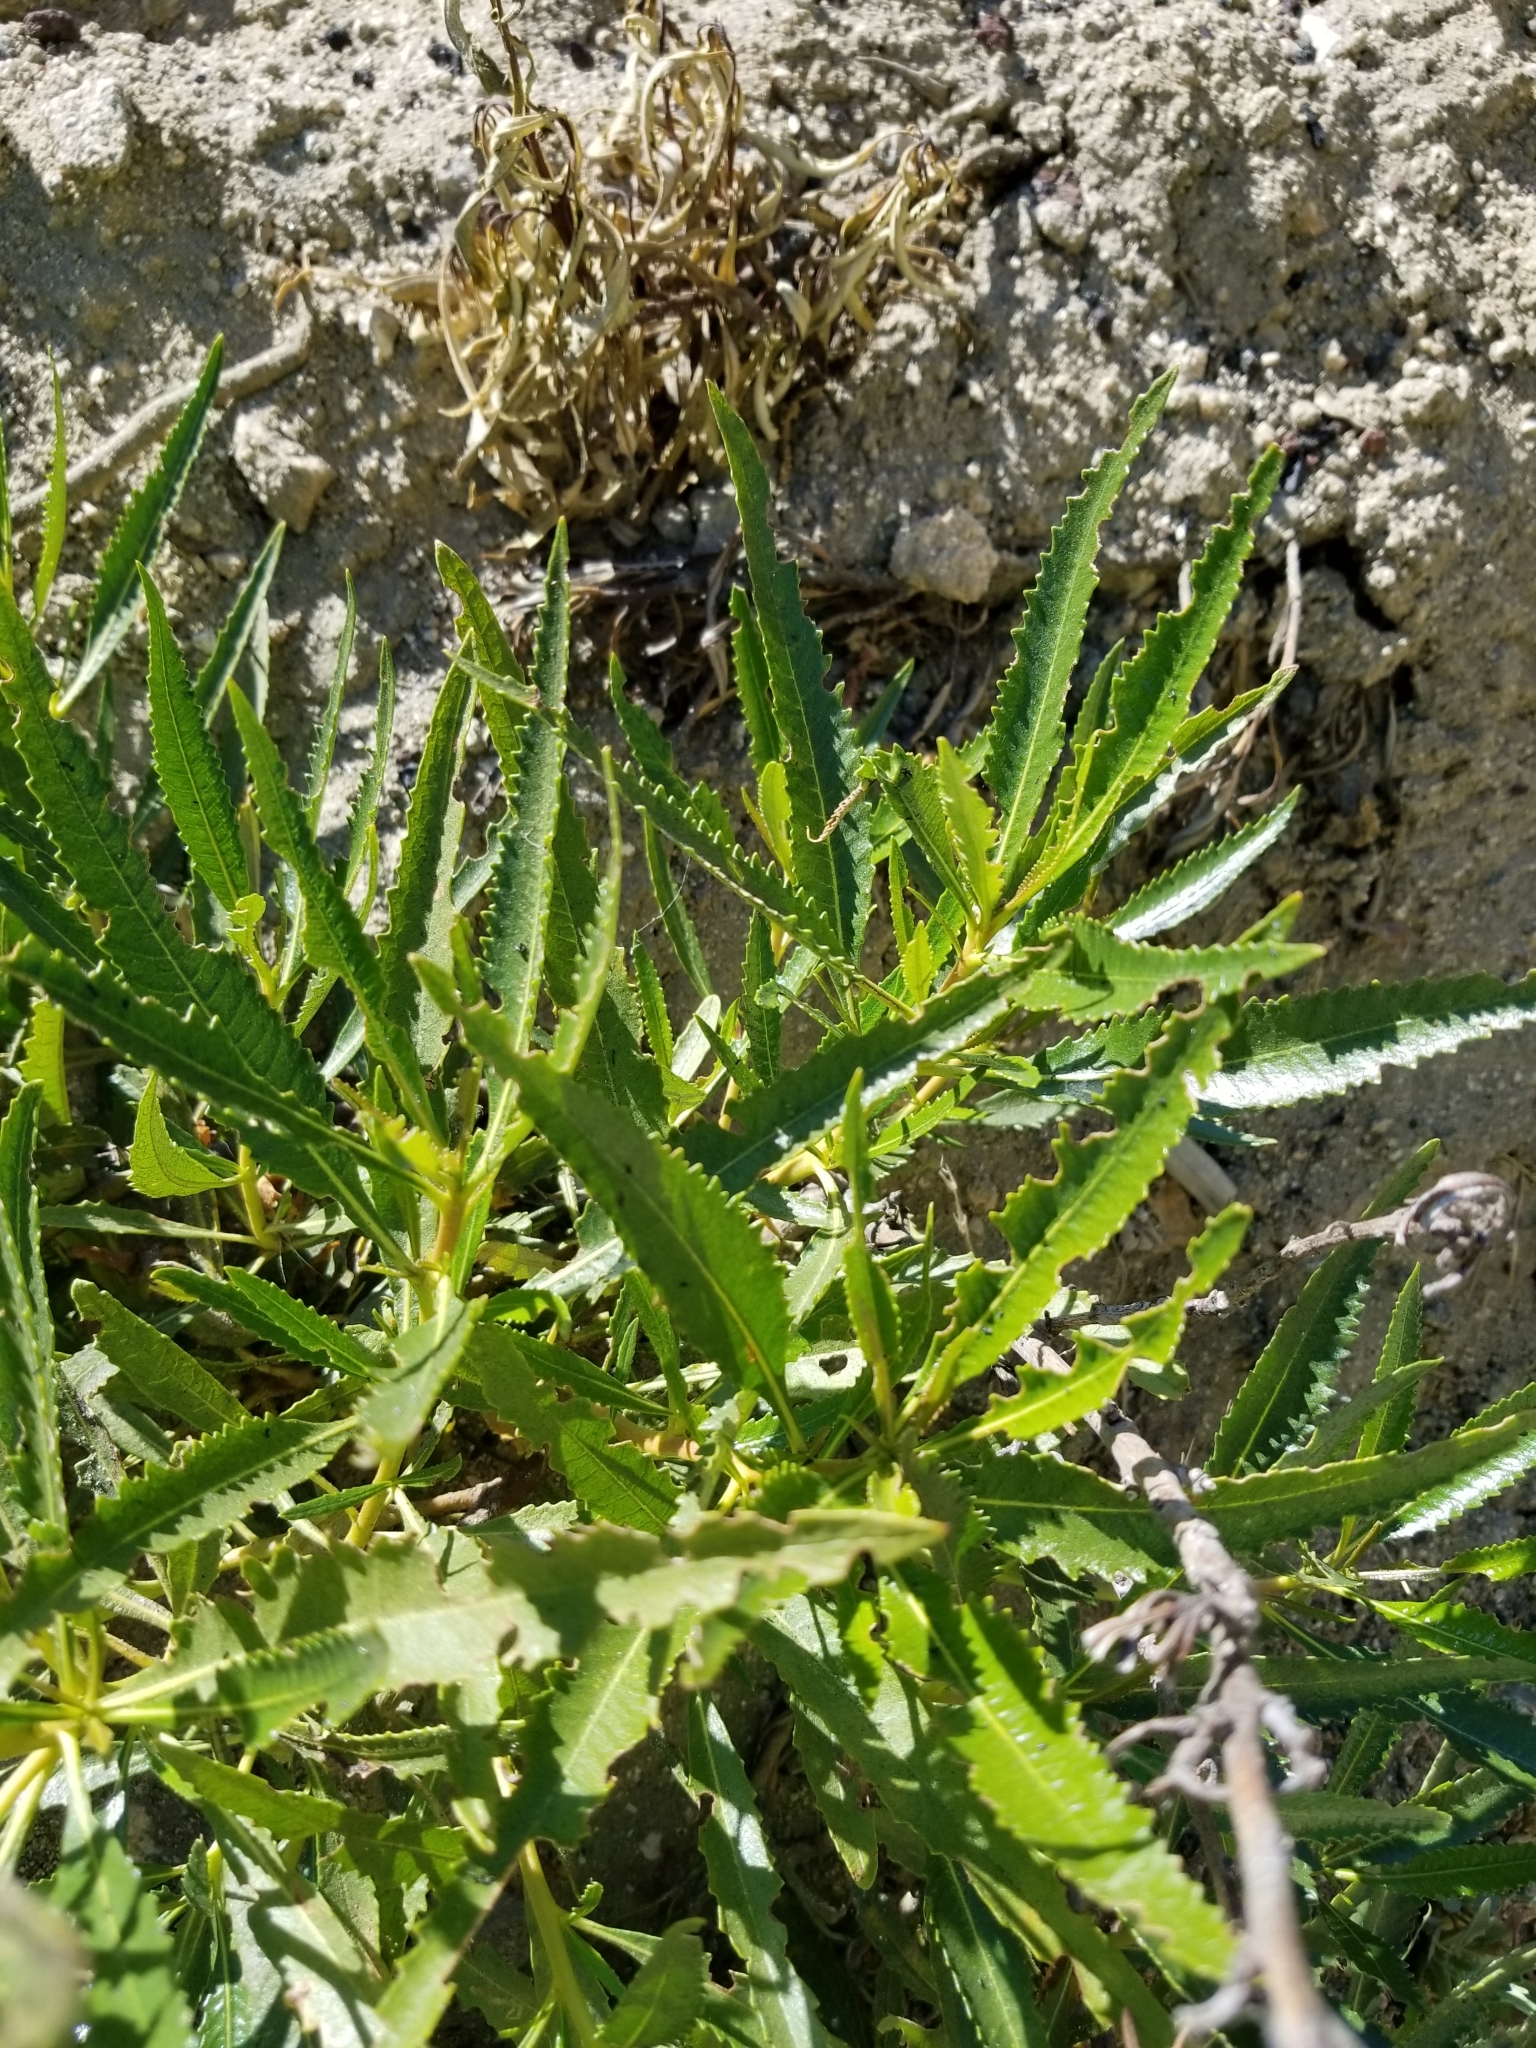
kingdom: Plantae
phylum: Tracheophyta
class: Magnoliopsida
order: Boraginales
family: Namaceae
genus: Eriodictyon
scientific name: Eriodictyon trichocalyx
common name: Hairy yerba-santa
